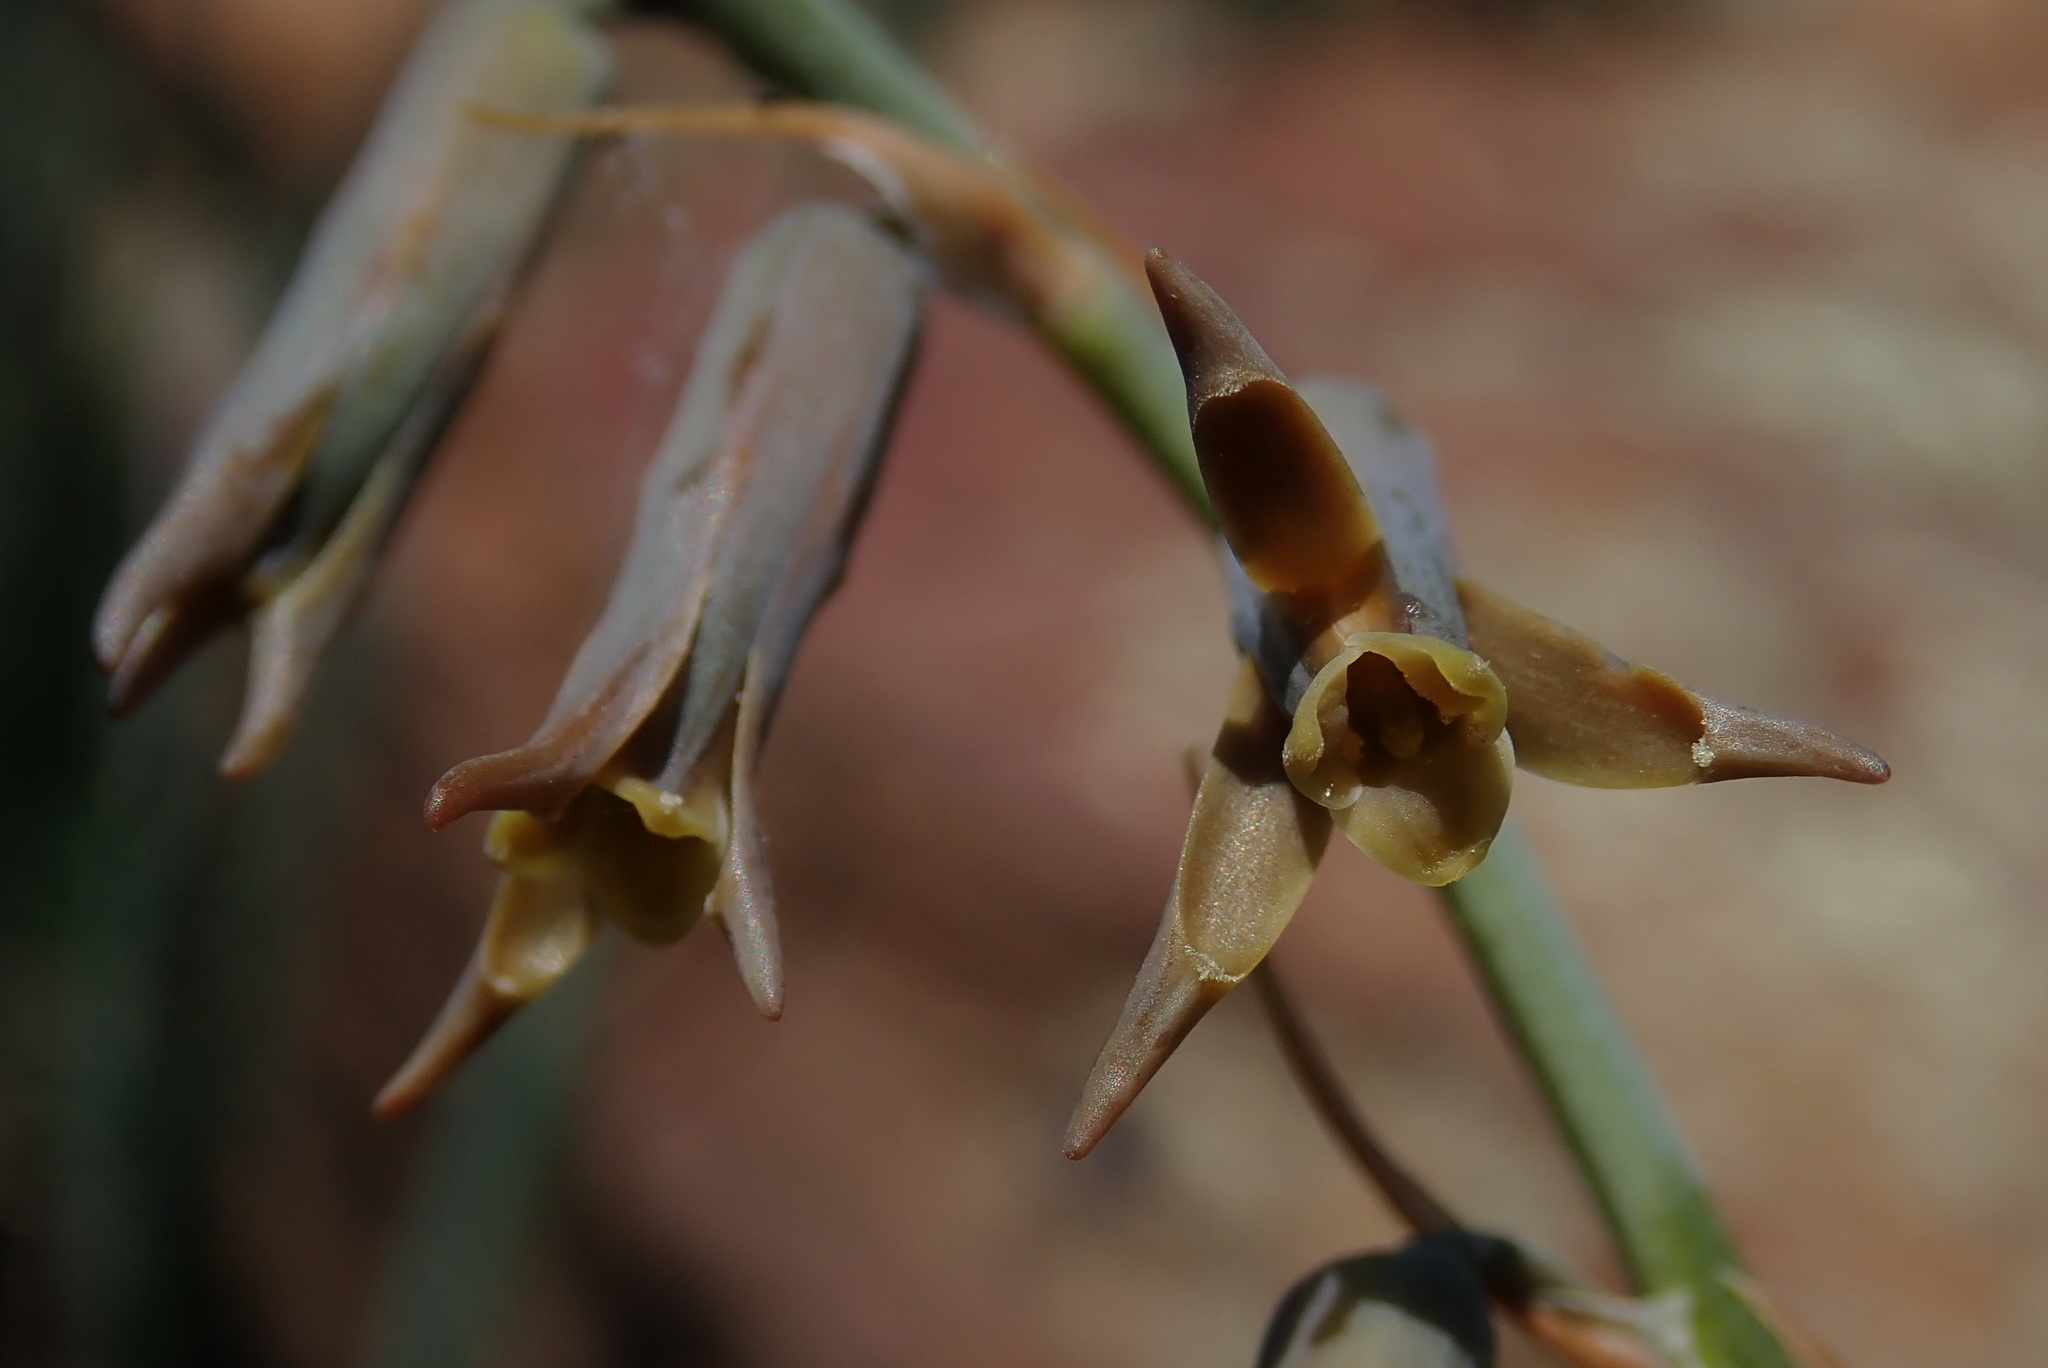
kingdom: Plantae
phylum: Tracheophyta
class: Liliopsida
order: Asparagales
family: Asparagaceae
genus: Dipcadi
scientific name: Dipcadi rigidifolium
